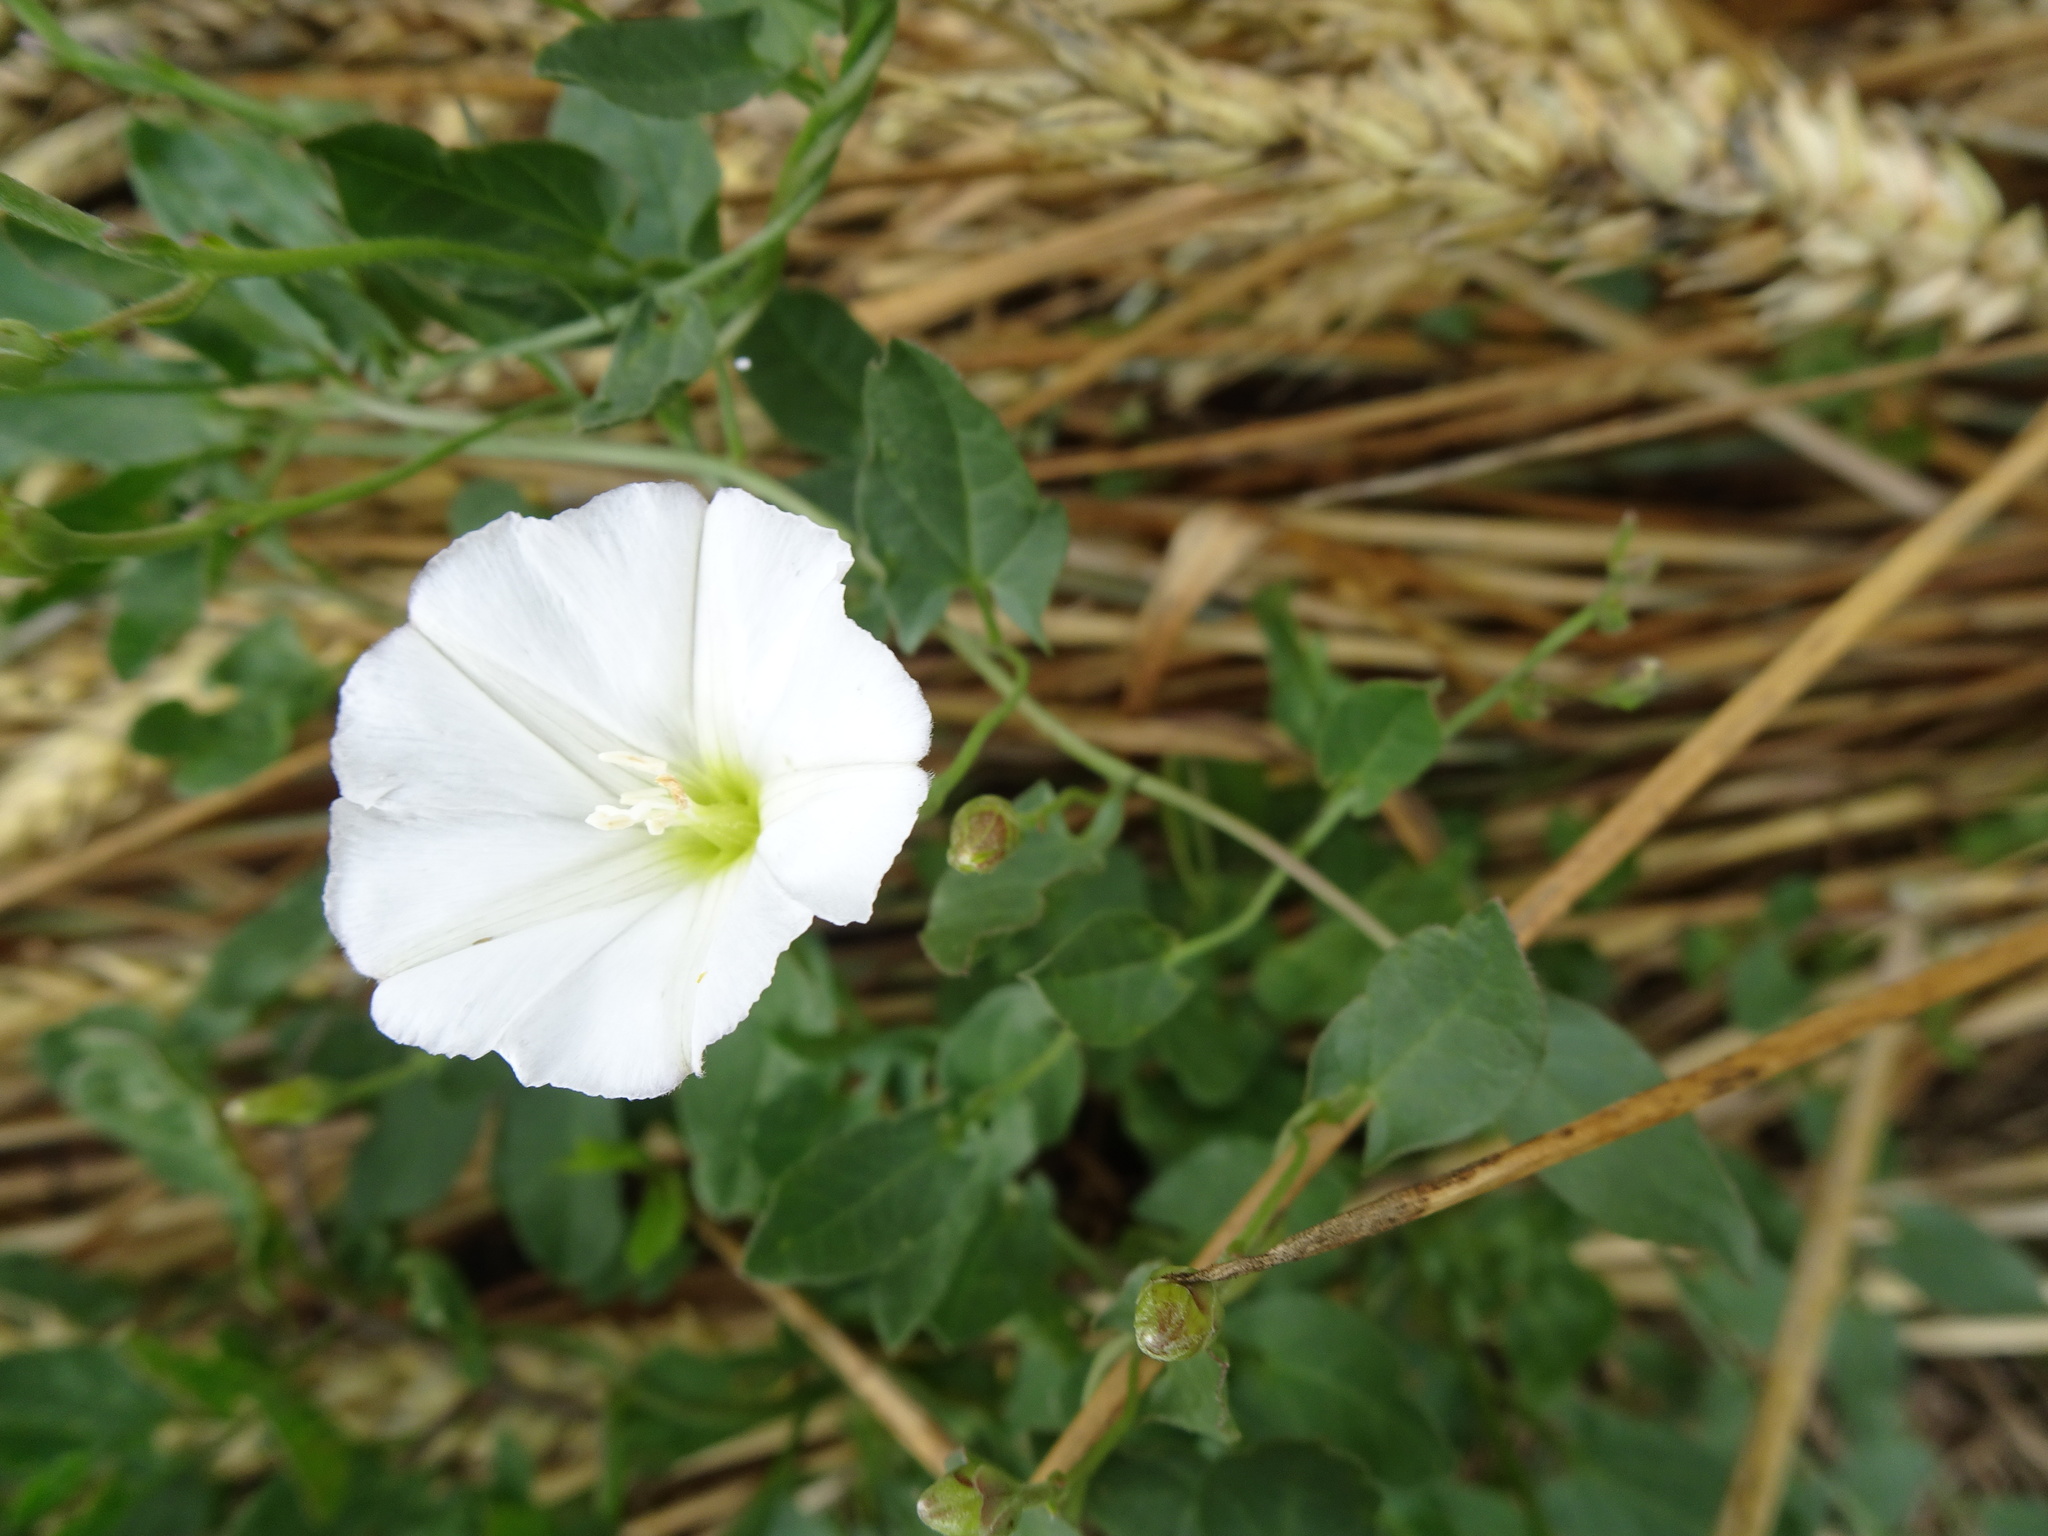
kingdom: Plantae
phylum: Tracheophyta
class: Magnoliopsida
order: Solanales
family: Convolvulaceae
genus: Convolvulus
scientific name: Convolvulus arvensis
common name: Field bindweed
